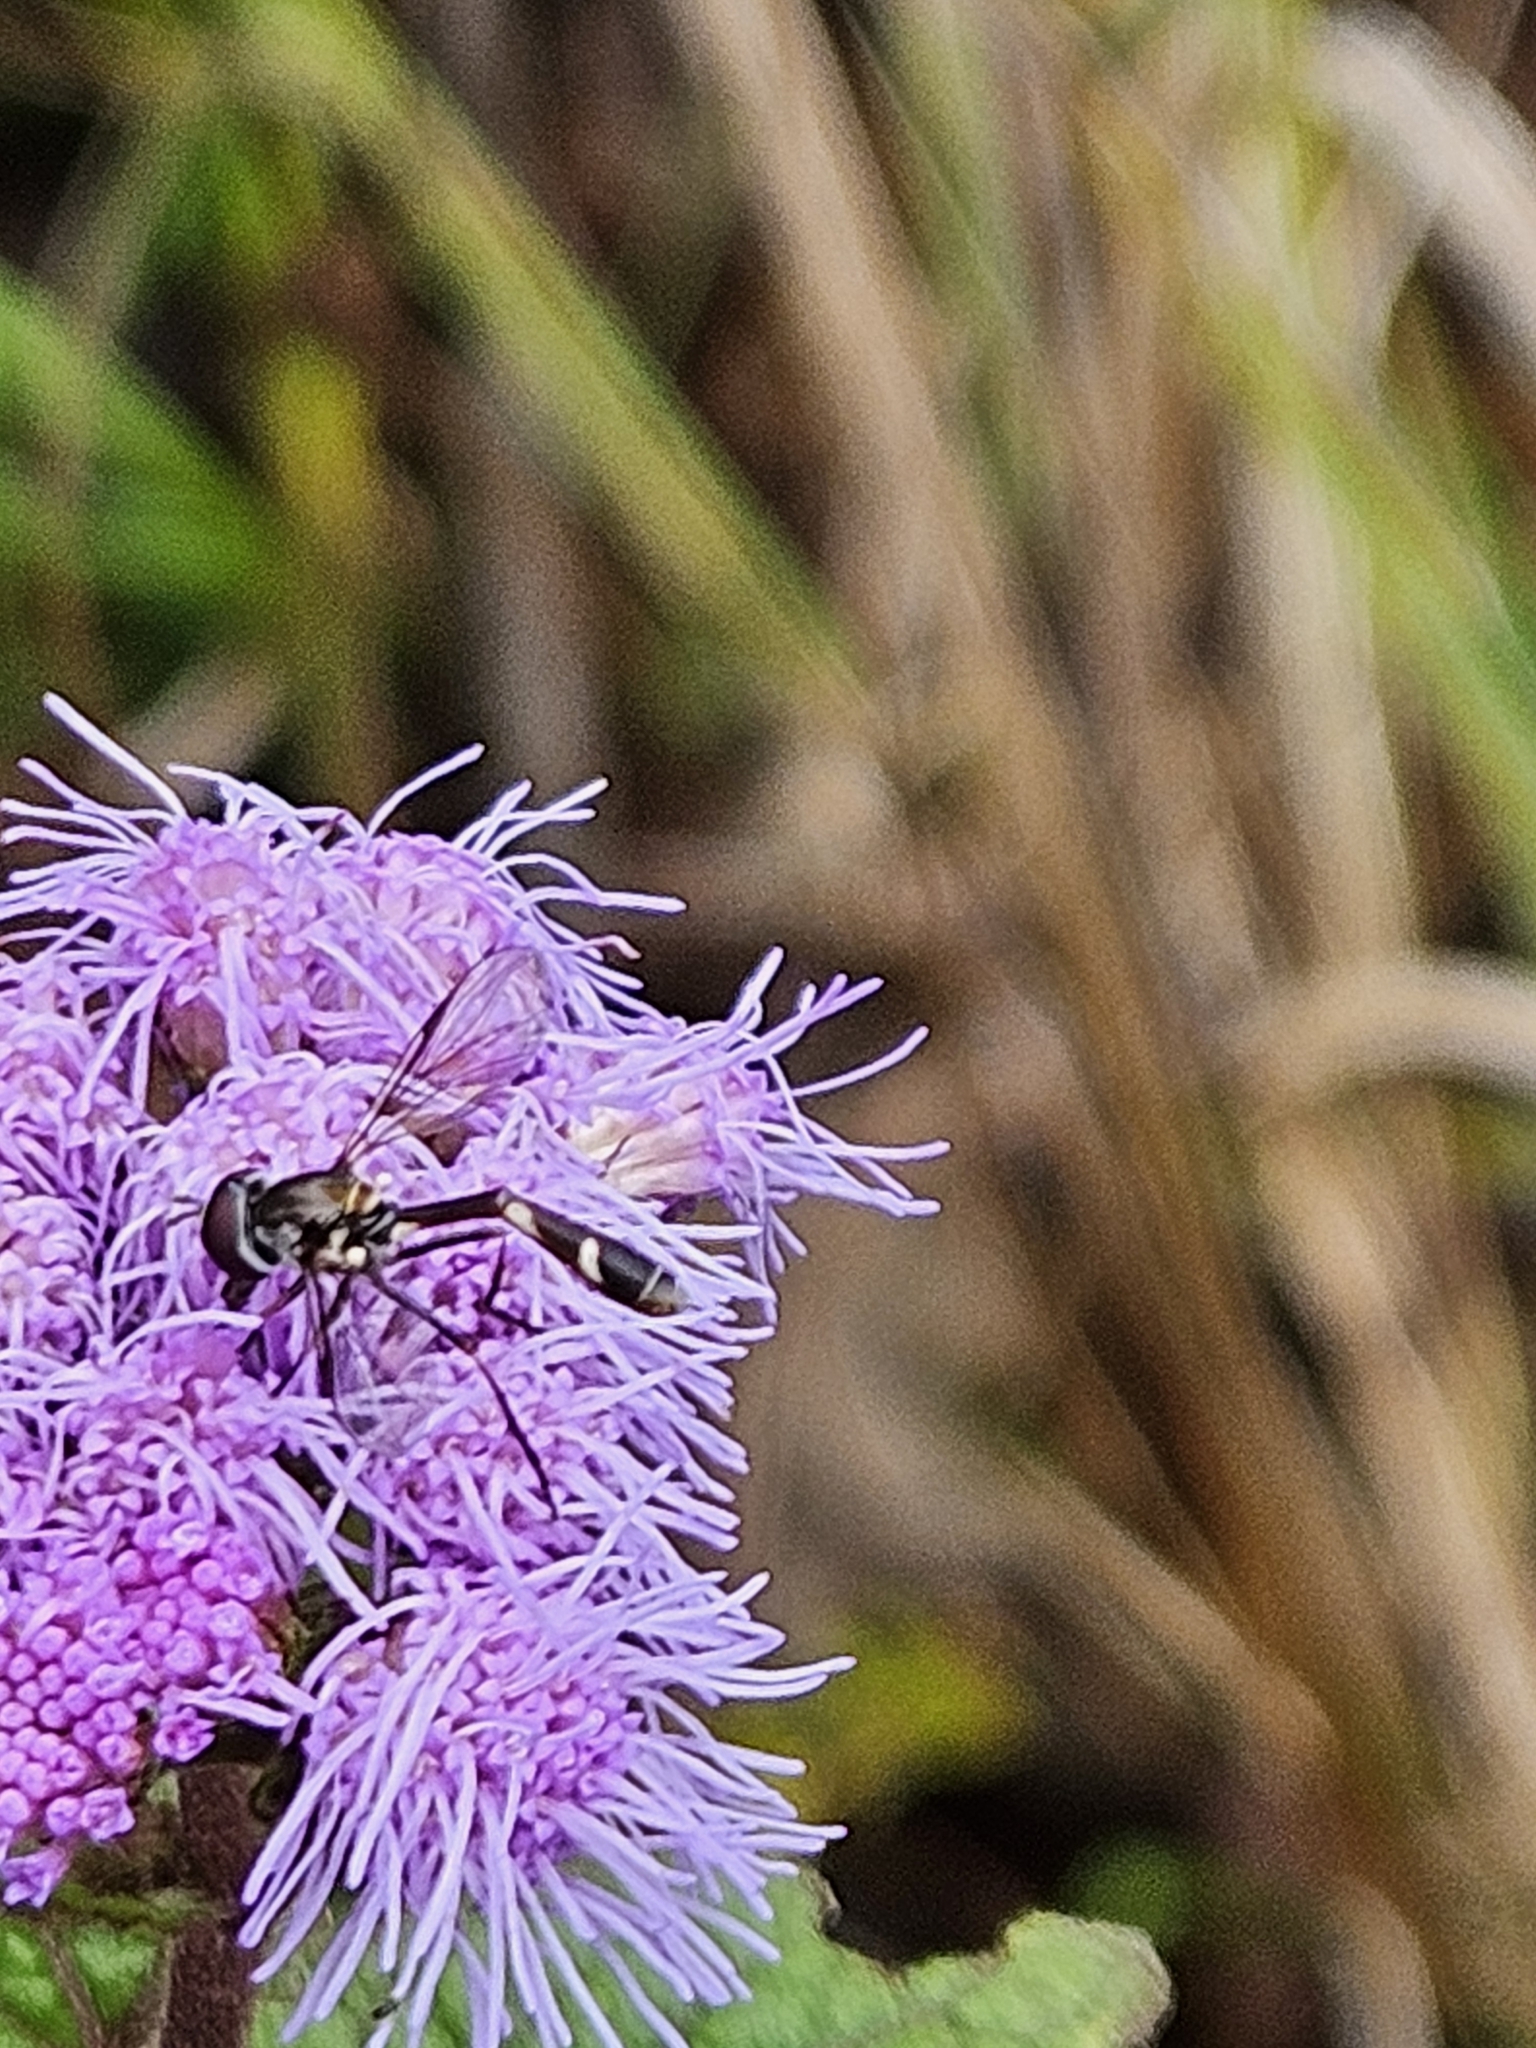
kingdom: Animalia
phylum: Arthropoda
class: Insecta
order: Diptera
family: Syrphidae
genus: Dioprosopa
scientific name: Dioprosopa clavatus
